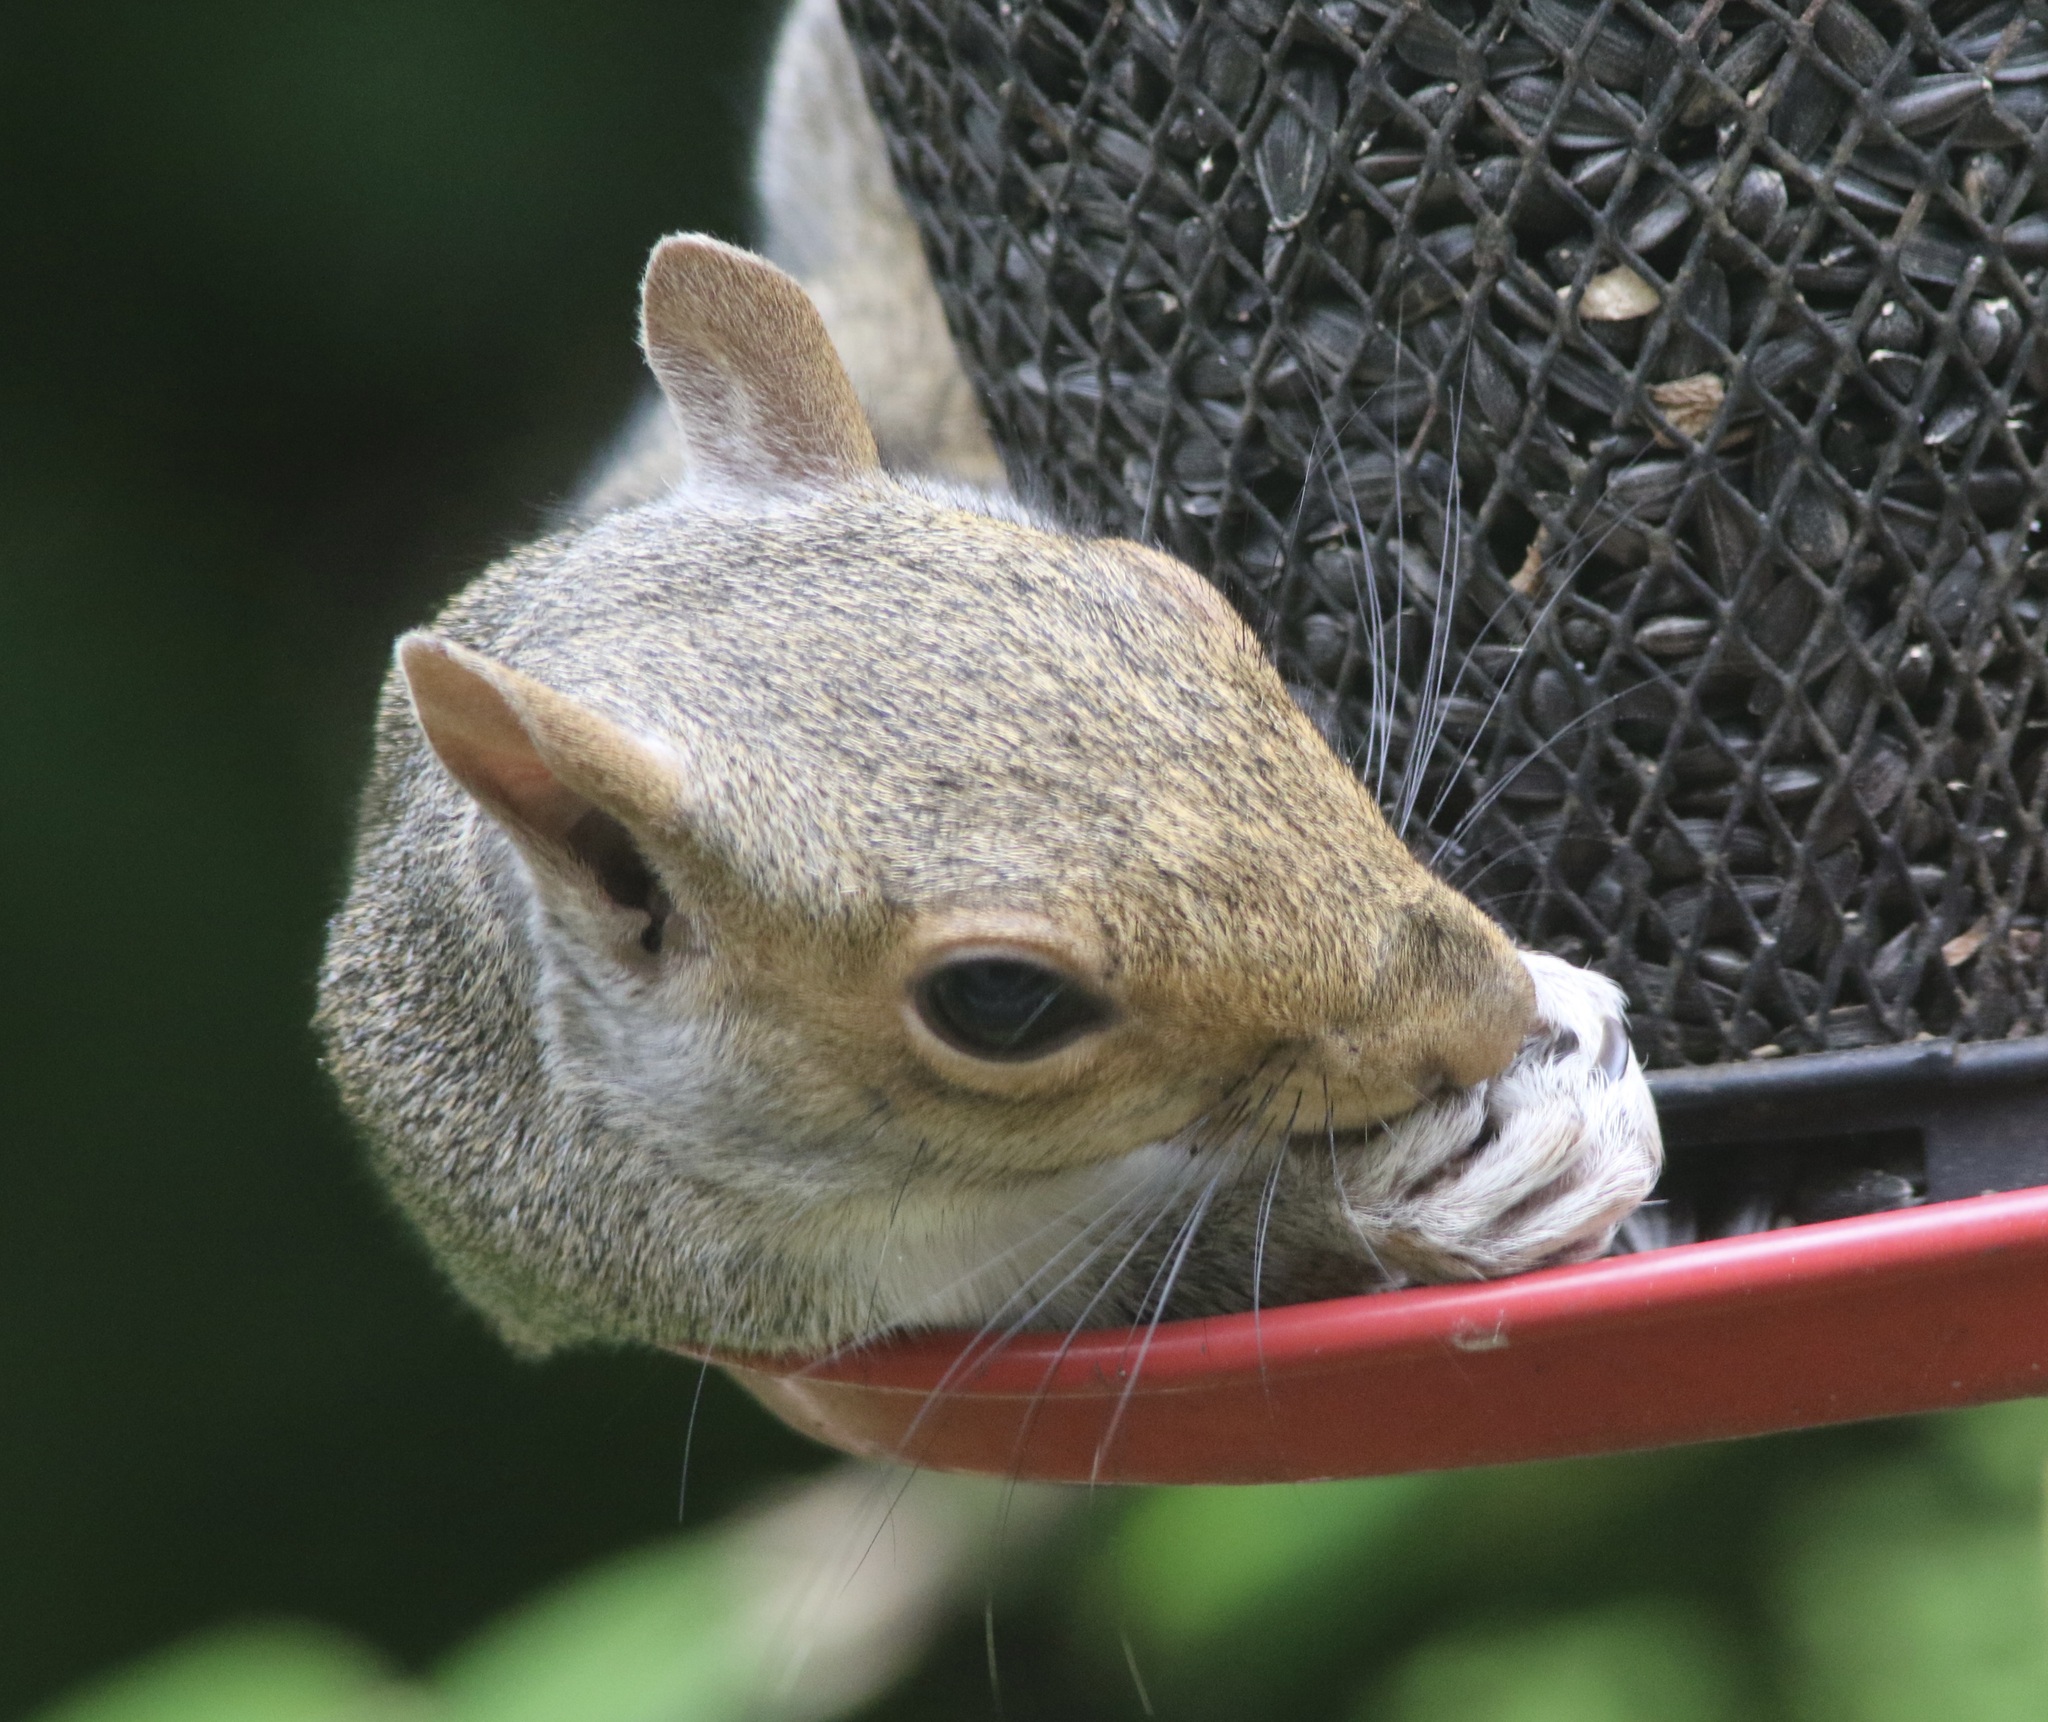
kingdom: Animalia
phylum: Chordata
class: Mammalia
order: Rodentia
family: Sciuridae
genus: Sciurus
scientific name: Sciurus carolinensis
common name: Eastern gray squirrel
